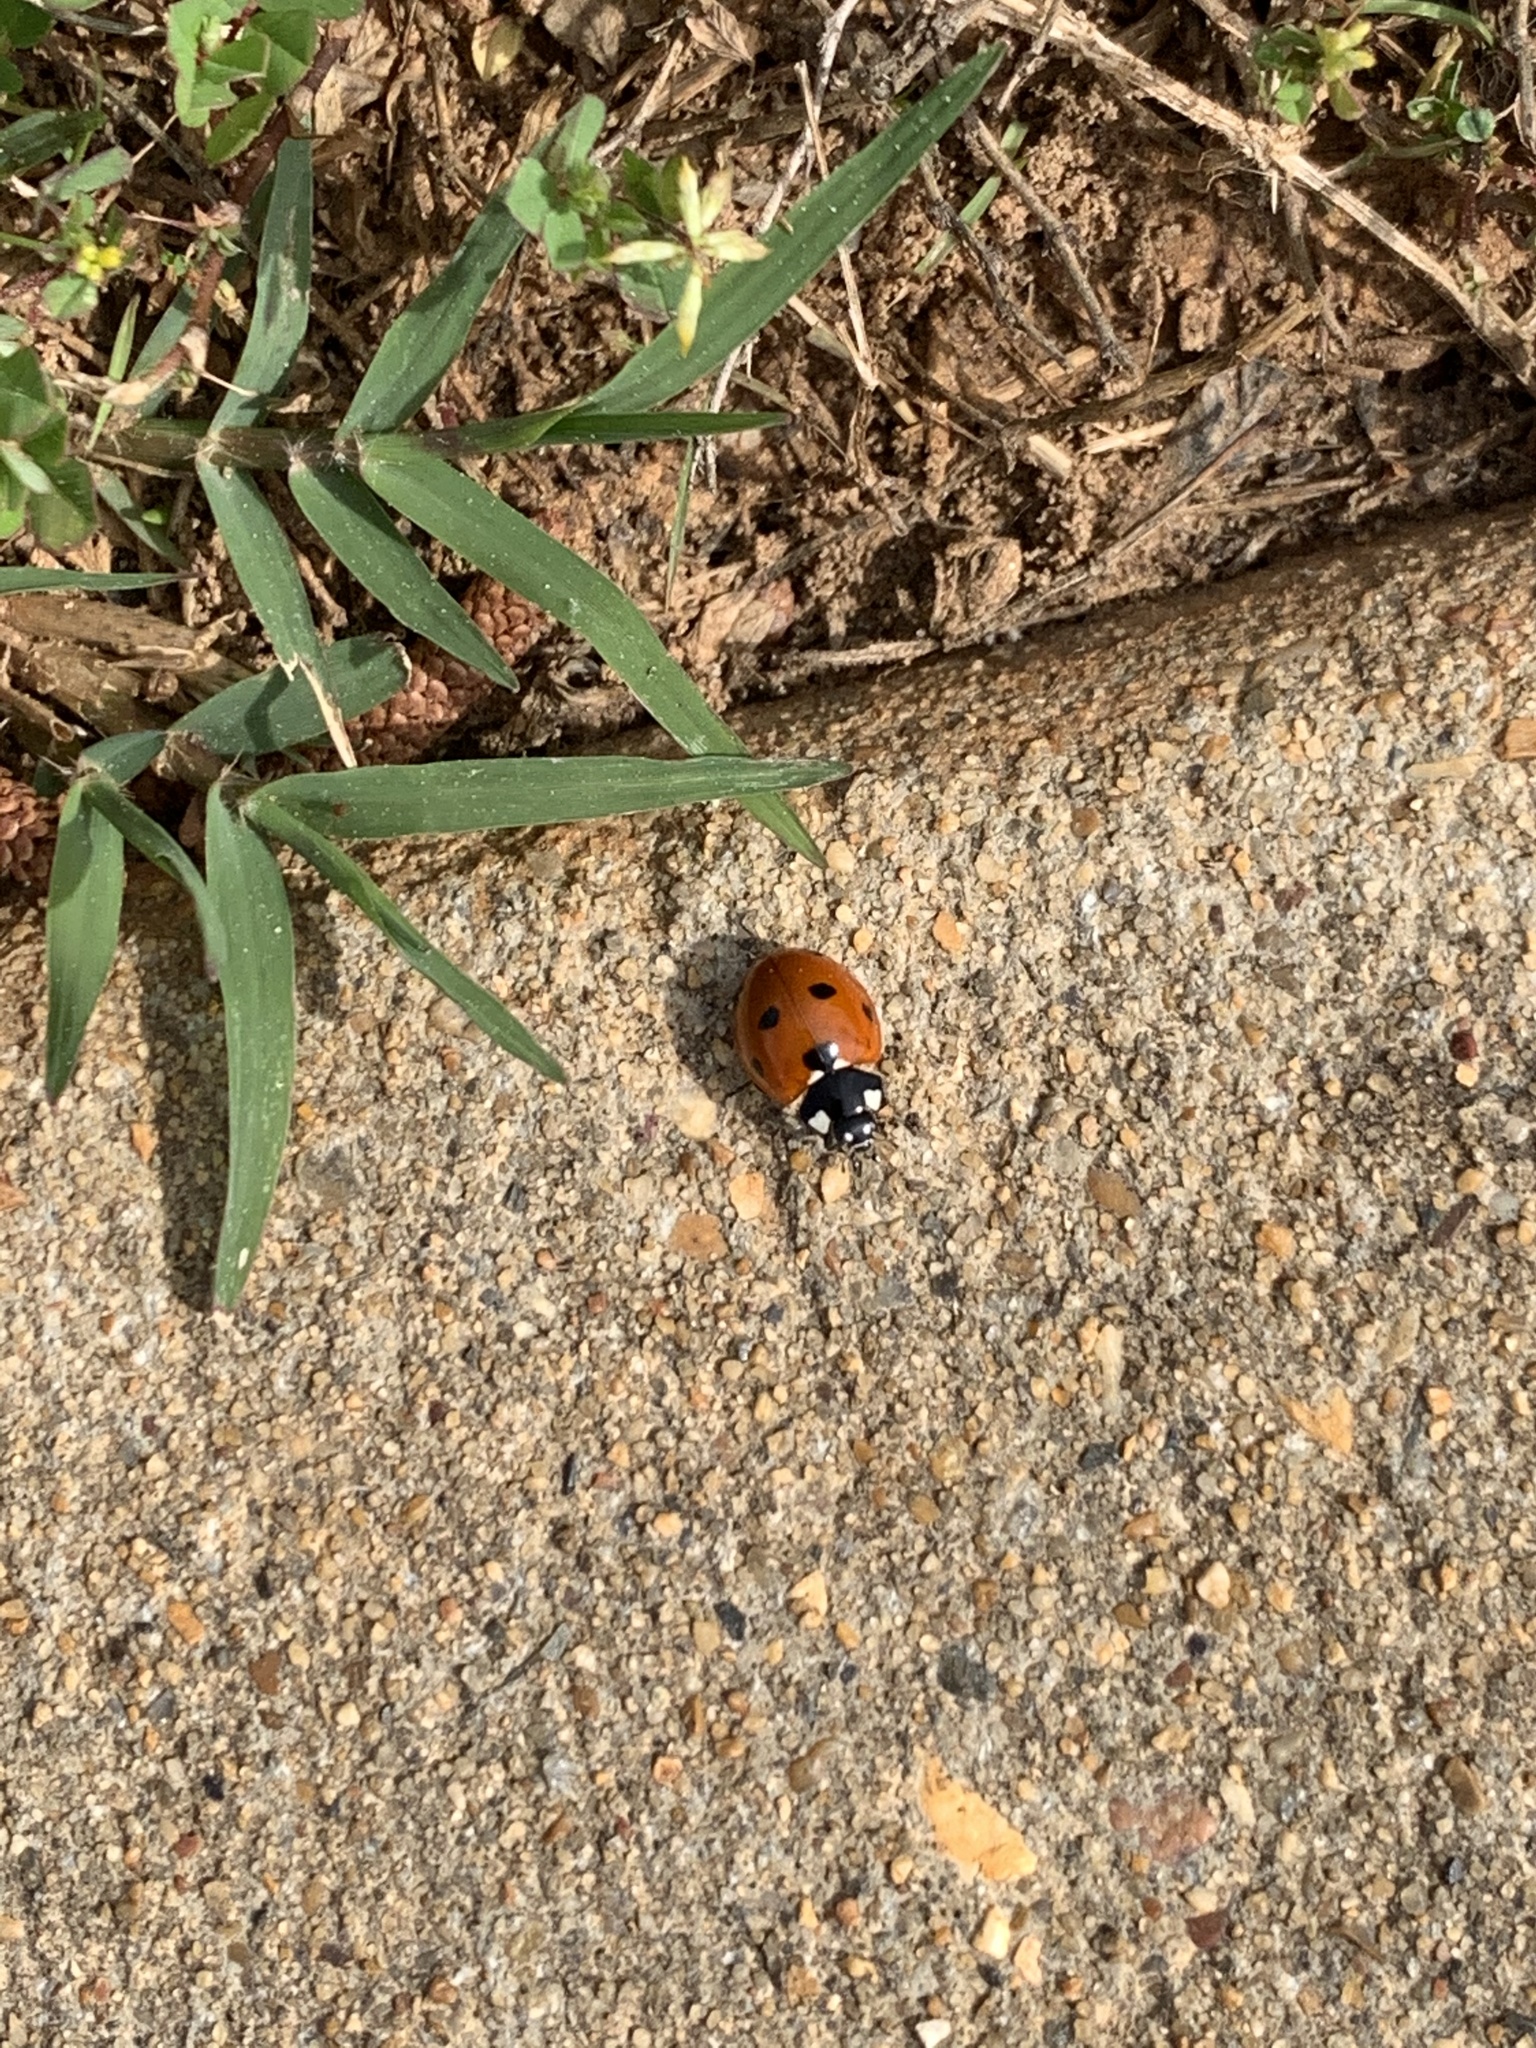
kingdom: Animalia
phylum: Arthropoda
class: Insecta
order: Coleoptera
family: Coccinellidae
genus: Coccinella
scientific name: Coccinella septempunctata
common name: Sevenspotted lady beetle
